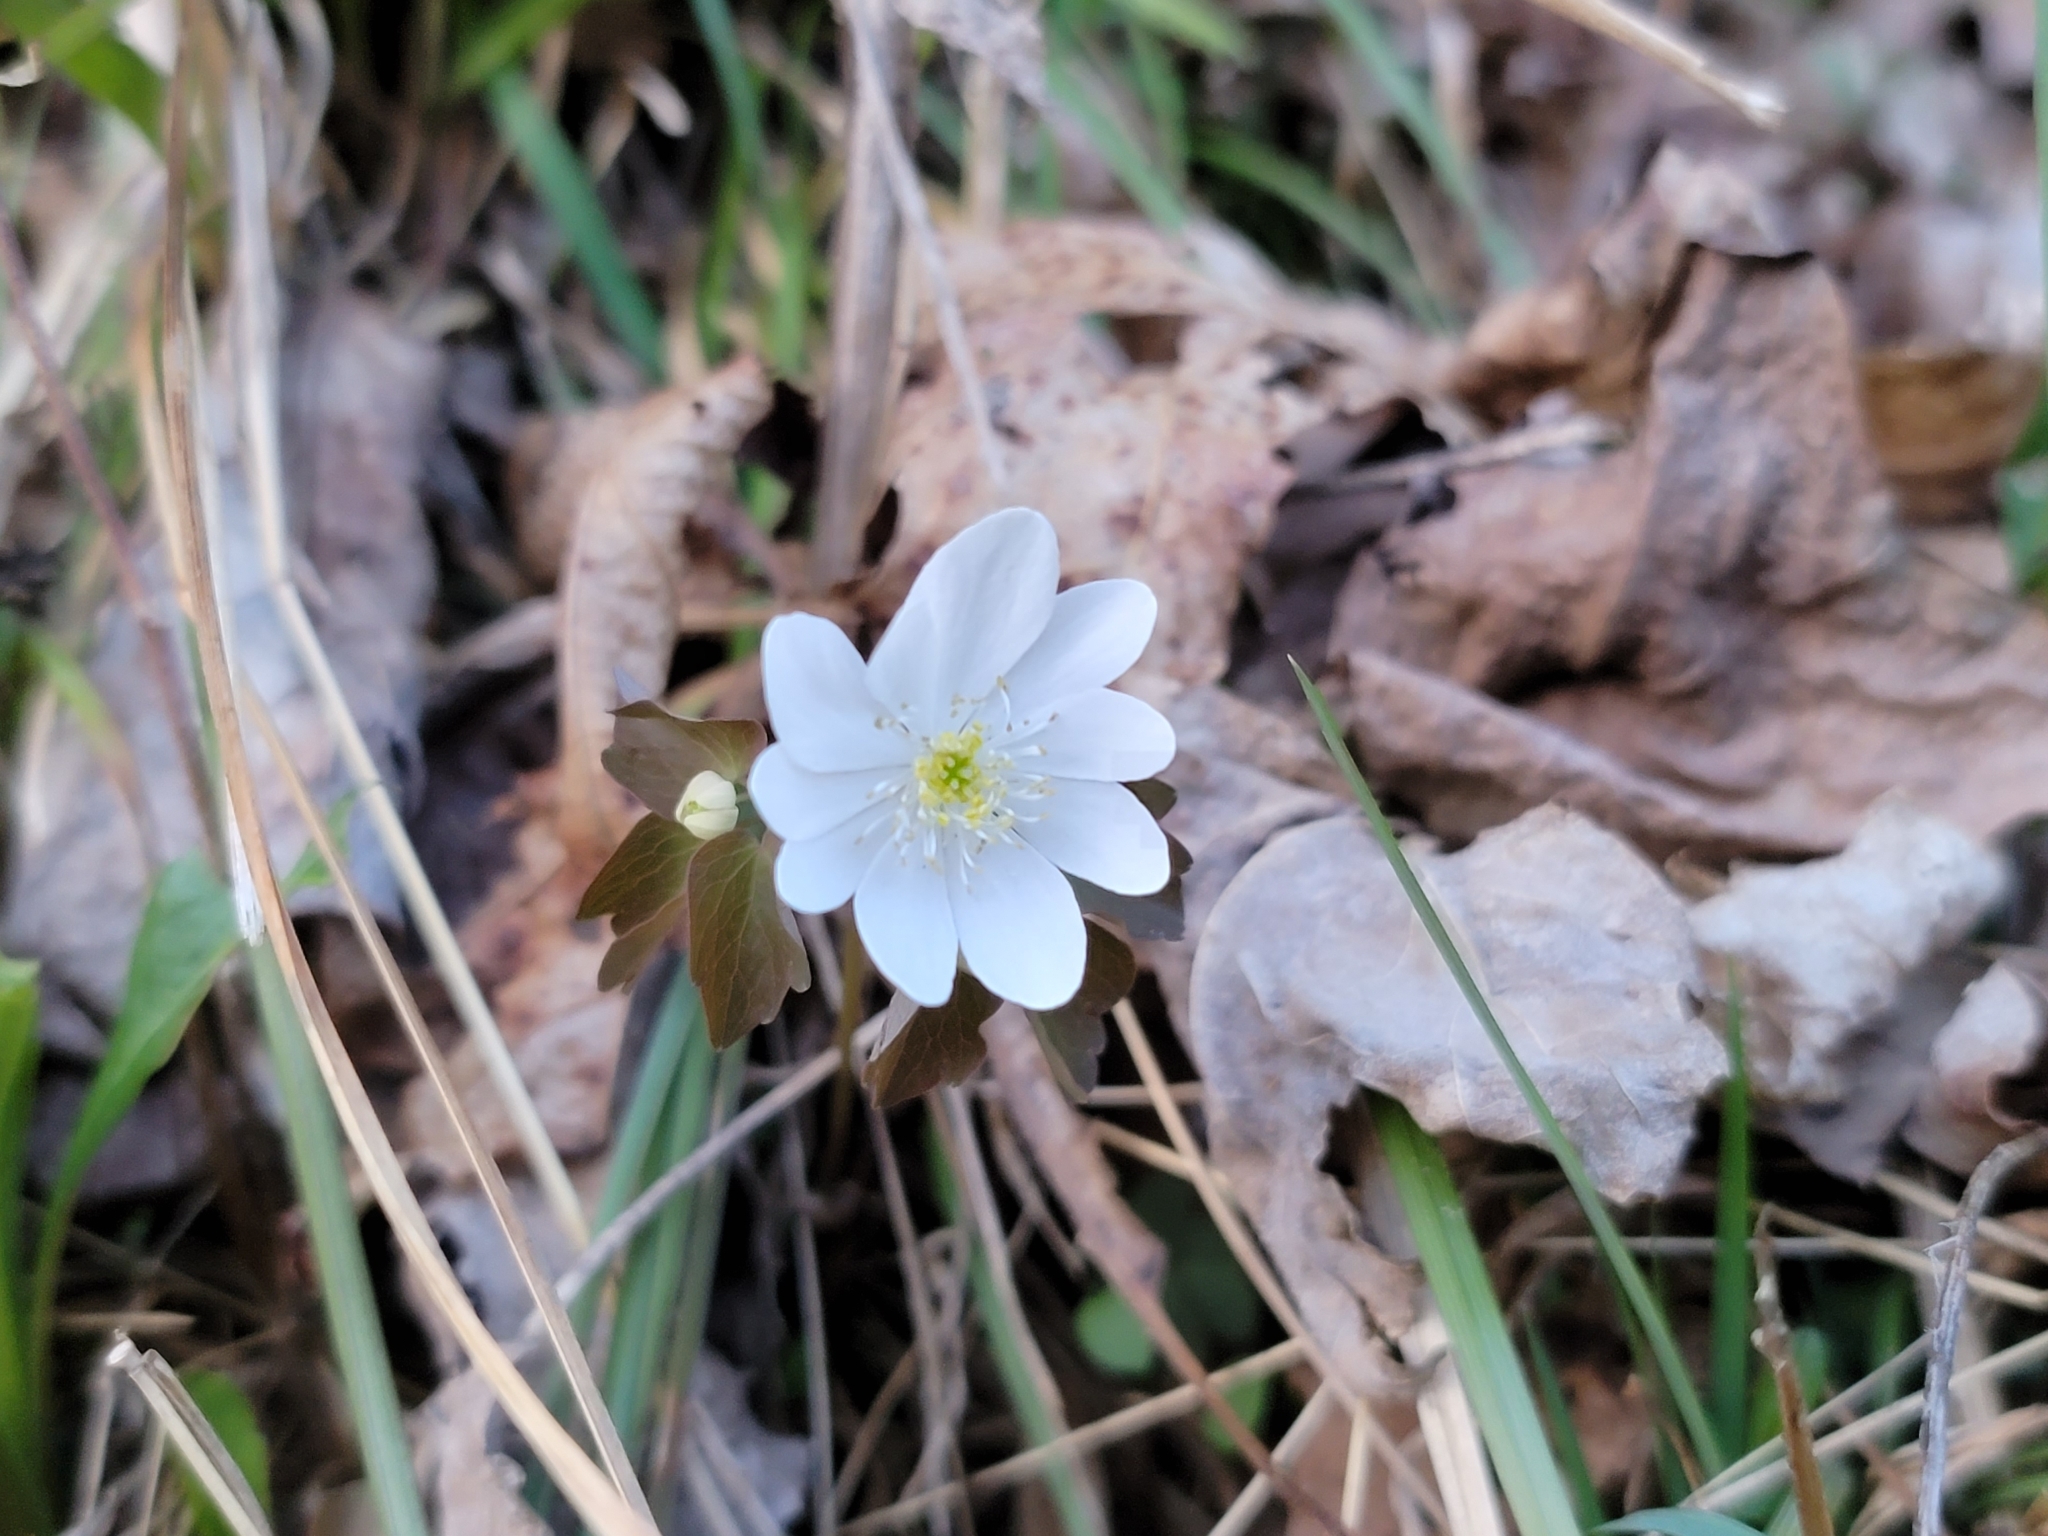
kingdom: Plantae
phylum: Tracheophyta
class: Magnoliopsida
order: Ranunculales
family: Ranunculaceae
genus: Thalictrum
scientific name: Thalictrum thalictroides
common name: Rue-anemone
